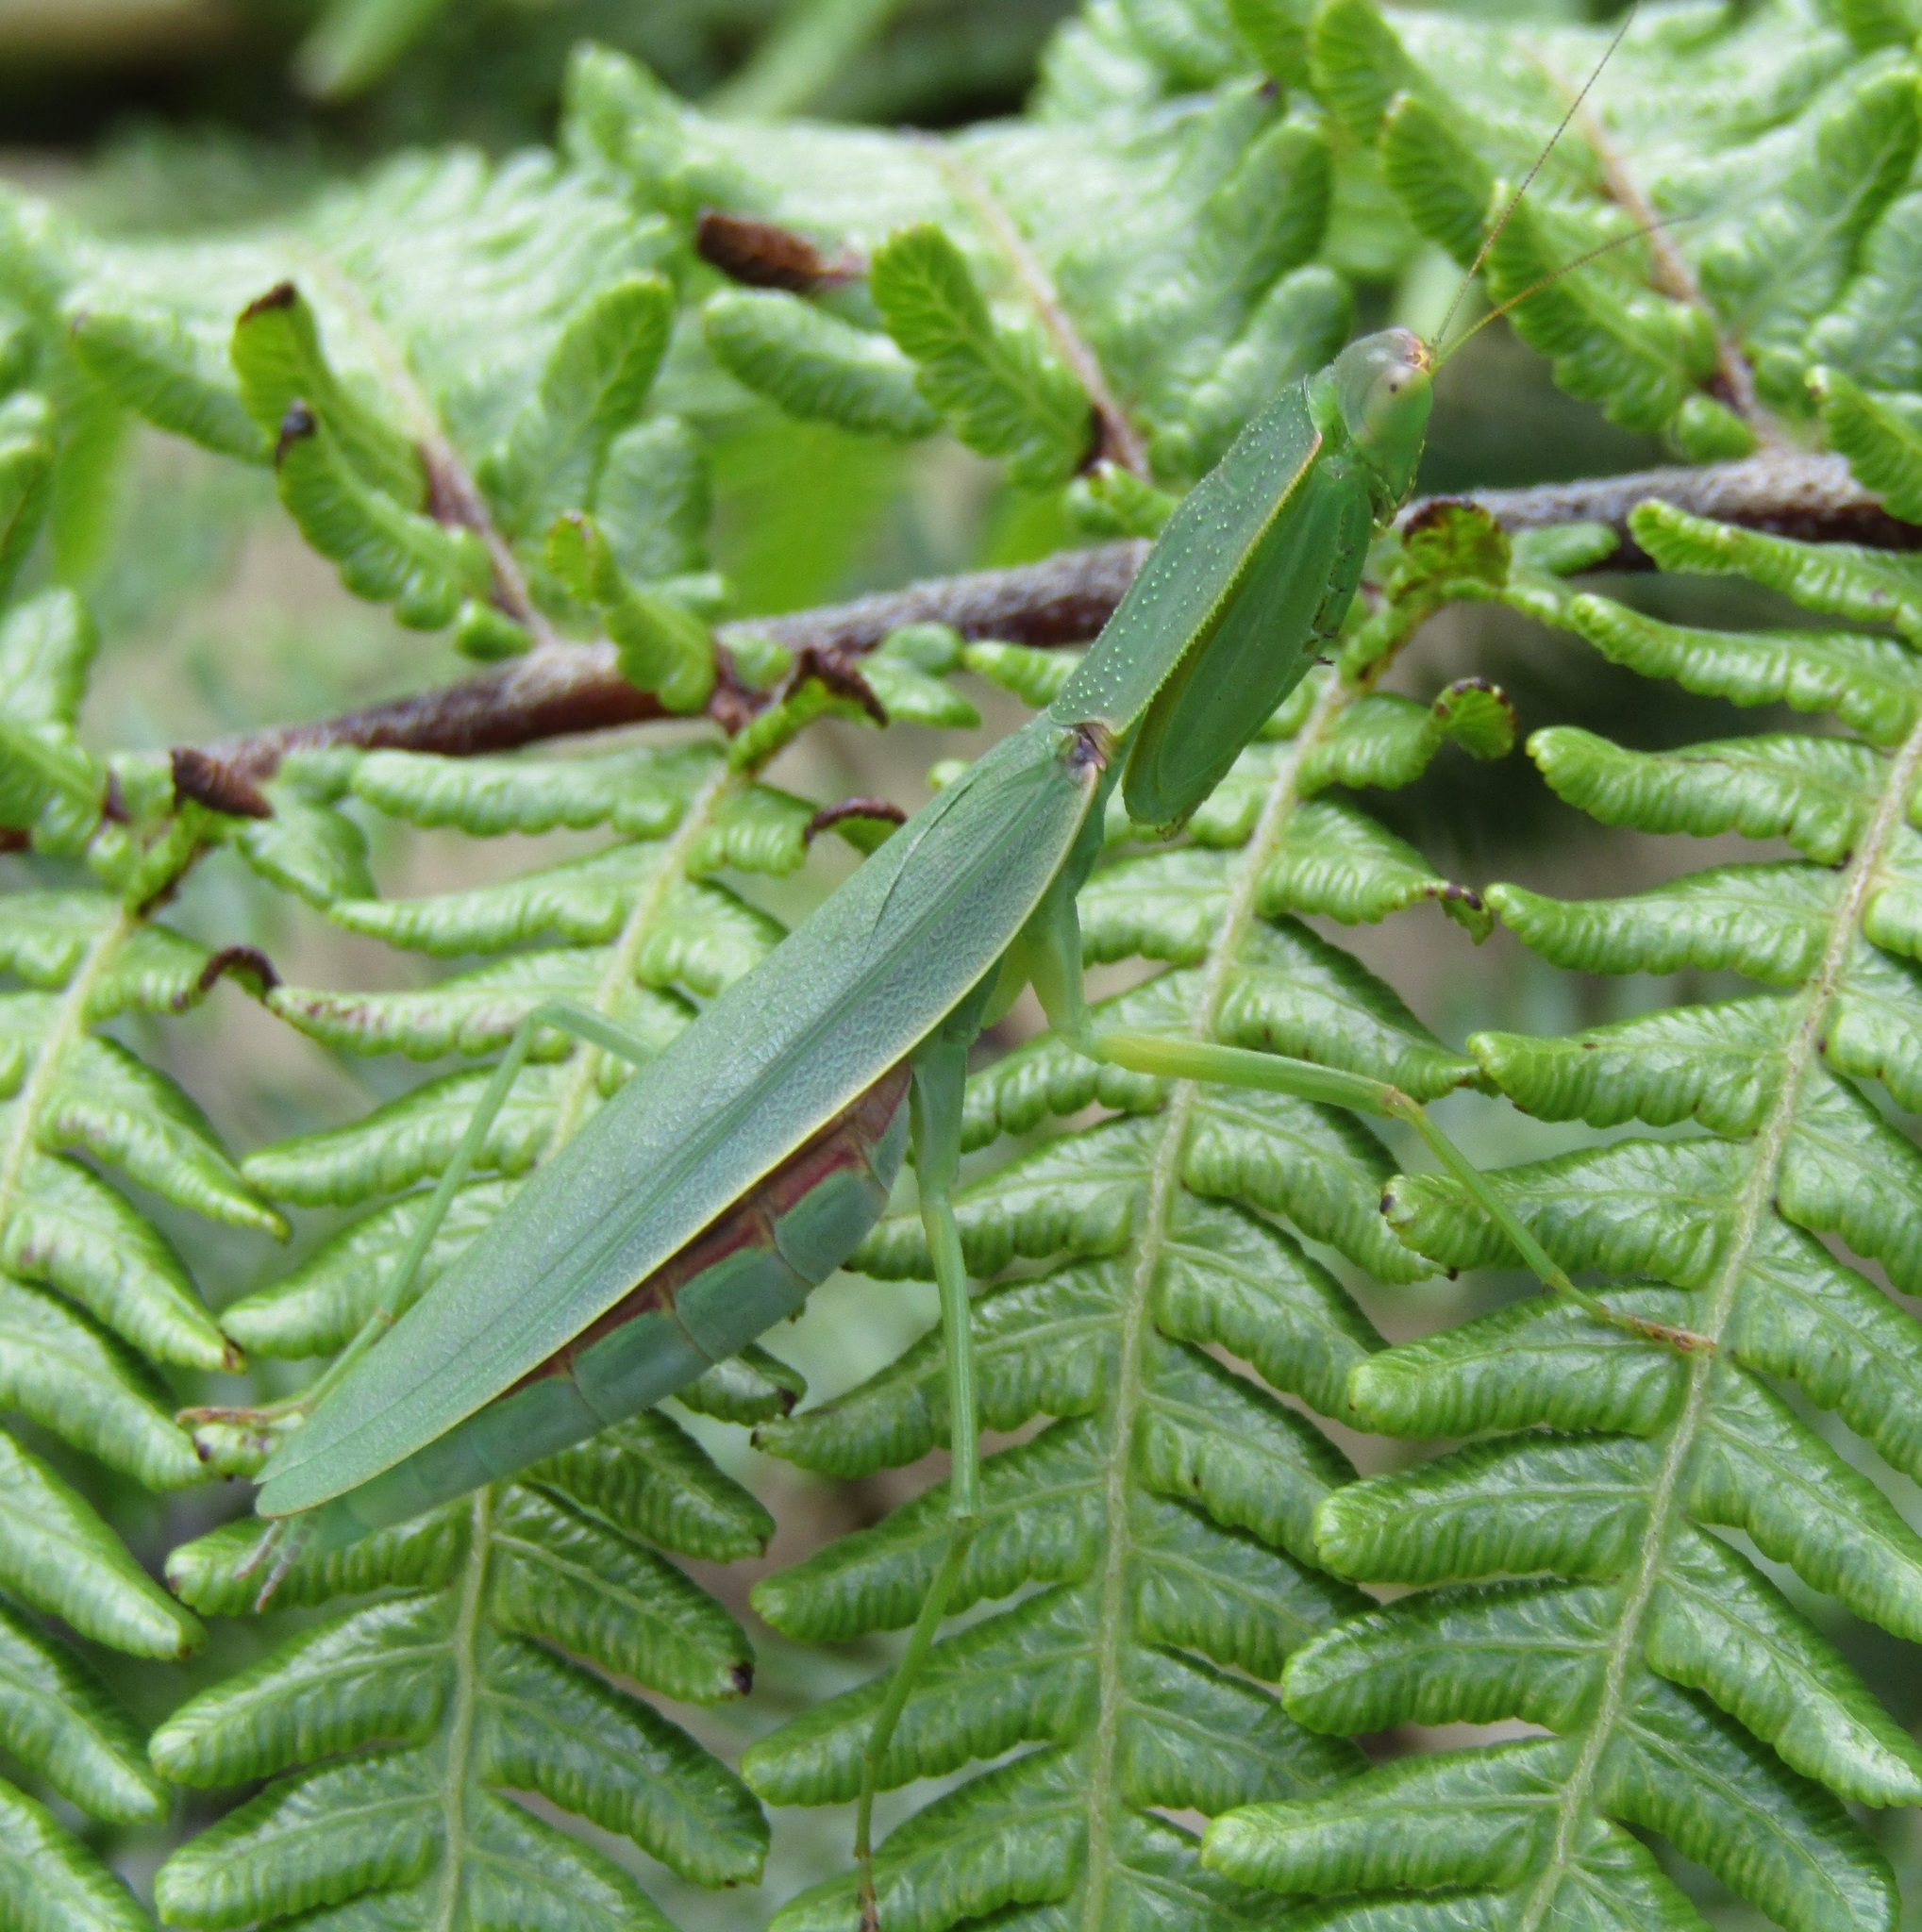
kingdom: Animalia
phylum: Arthropoda
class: Insecta
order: Mantodea
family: Mantidae
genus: Orthodera
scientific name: Orthodera novaezealandiae
